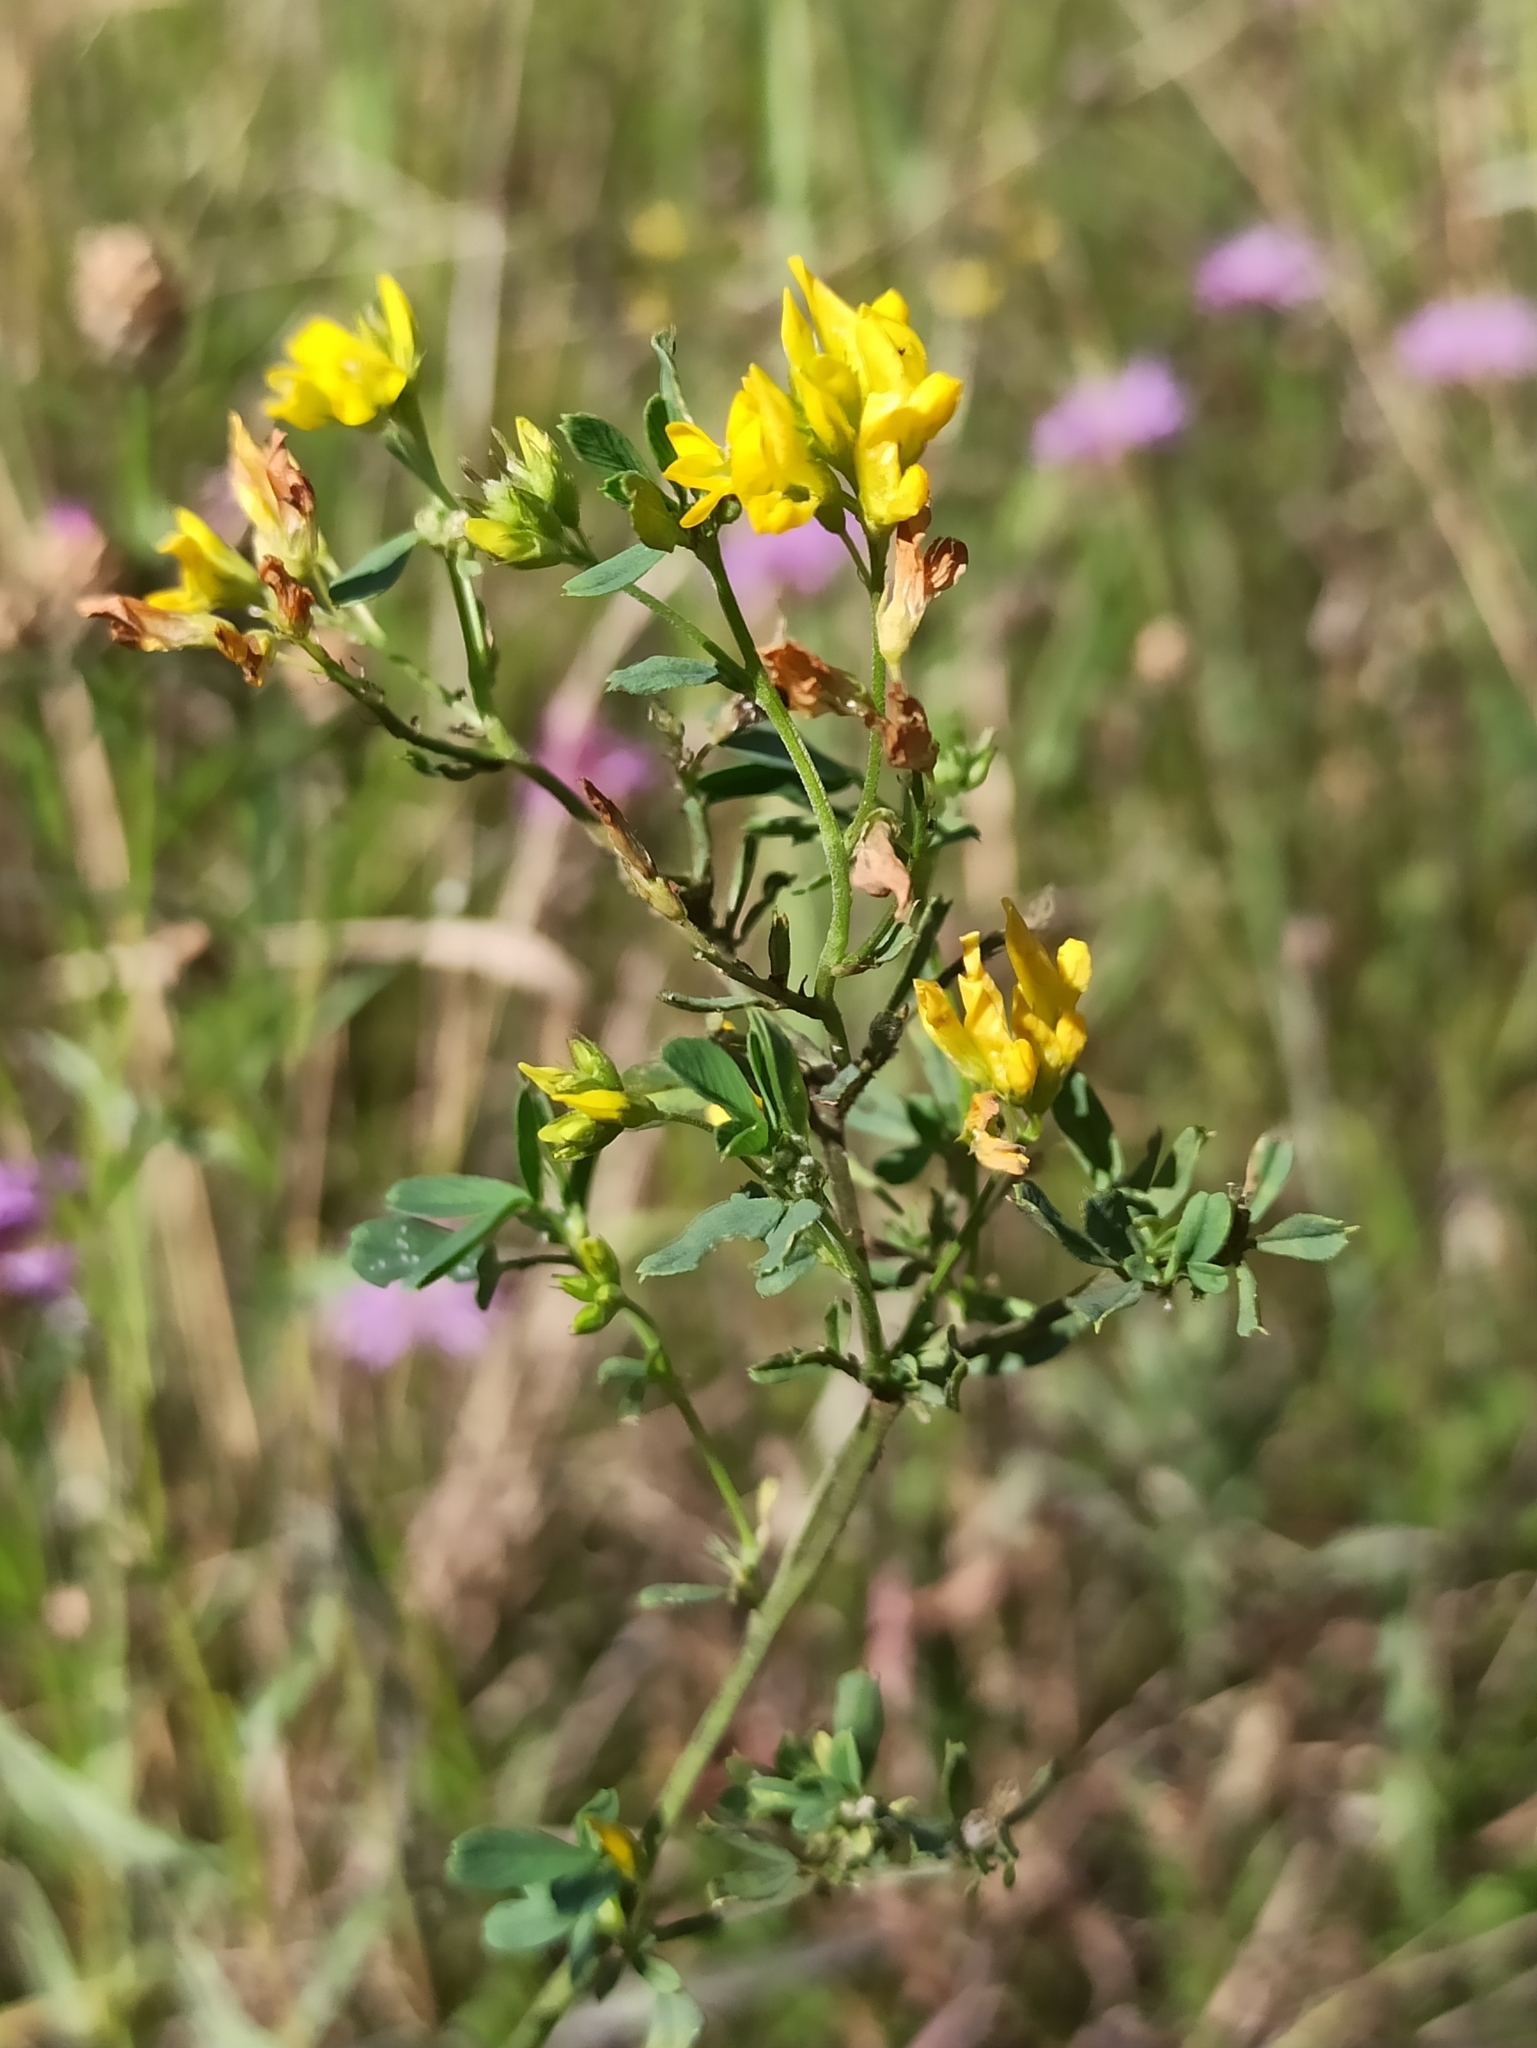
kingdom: Plantae
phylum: Tracheophyta
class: Magnoliopsida
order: Fabales
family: Fabaceae
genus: Medicago
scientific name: Medicago falcata
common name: Sickle medick
